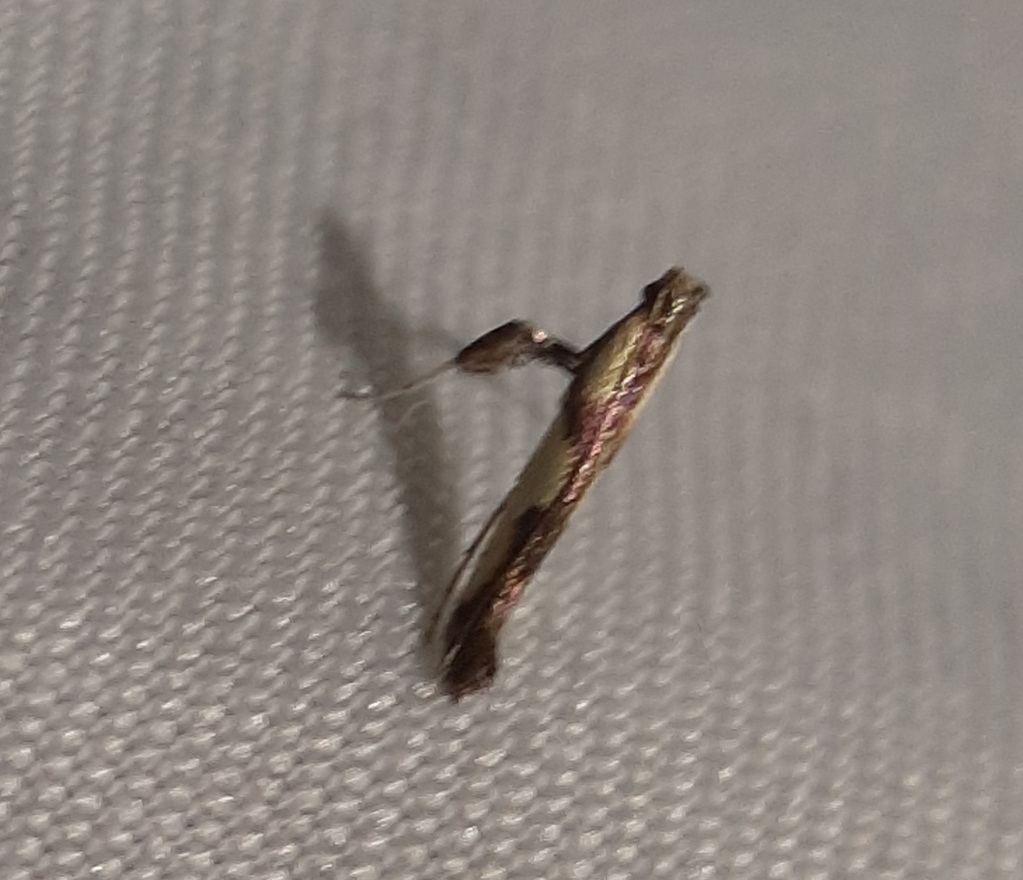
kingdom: Animalia
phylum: Arthropoda
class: Insecta
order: Lepidoptera
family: Gracillariidae
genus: Caloptilia
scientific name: Caloptilia blandella
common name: Walnut caloptilia moth
